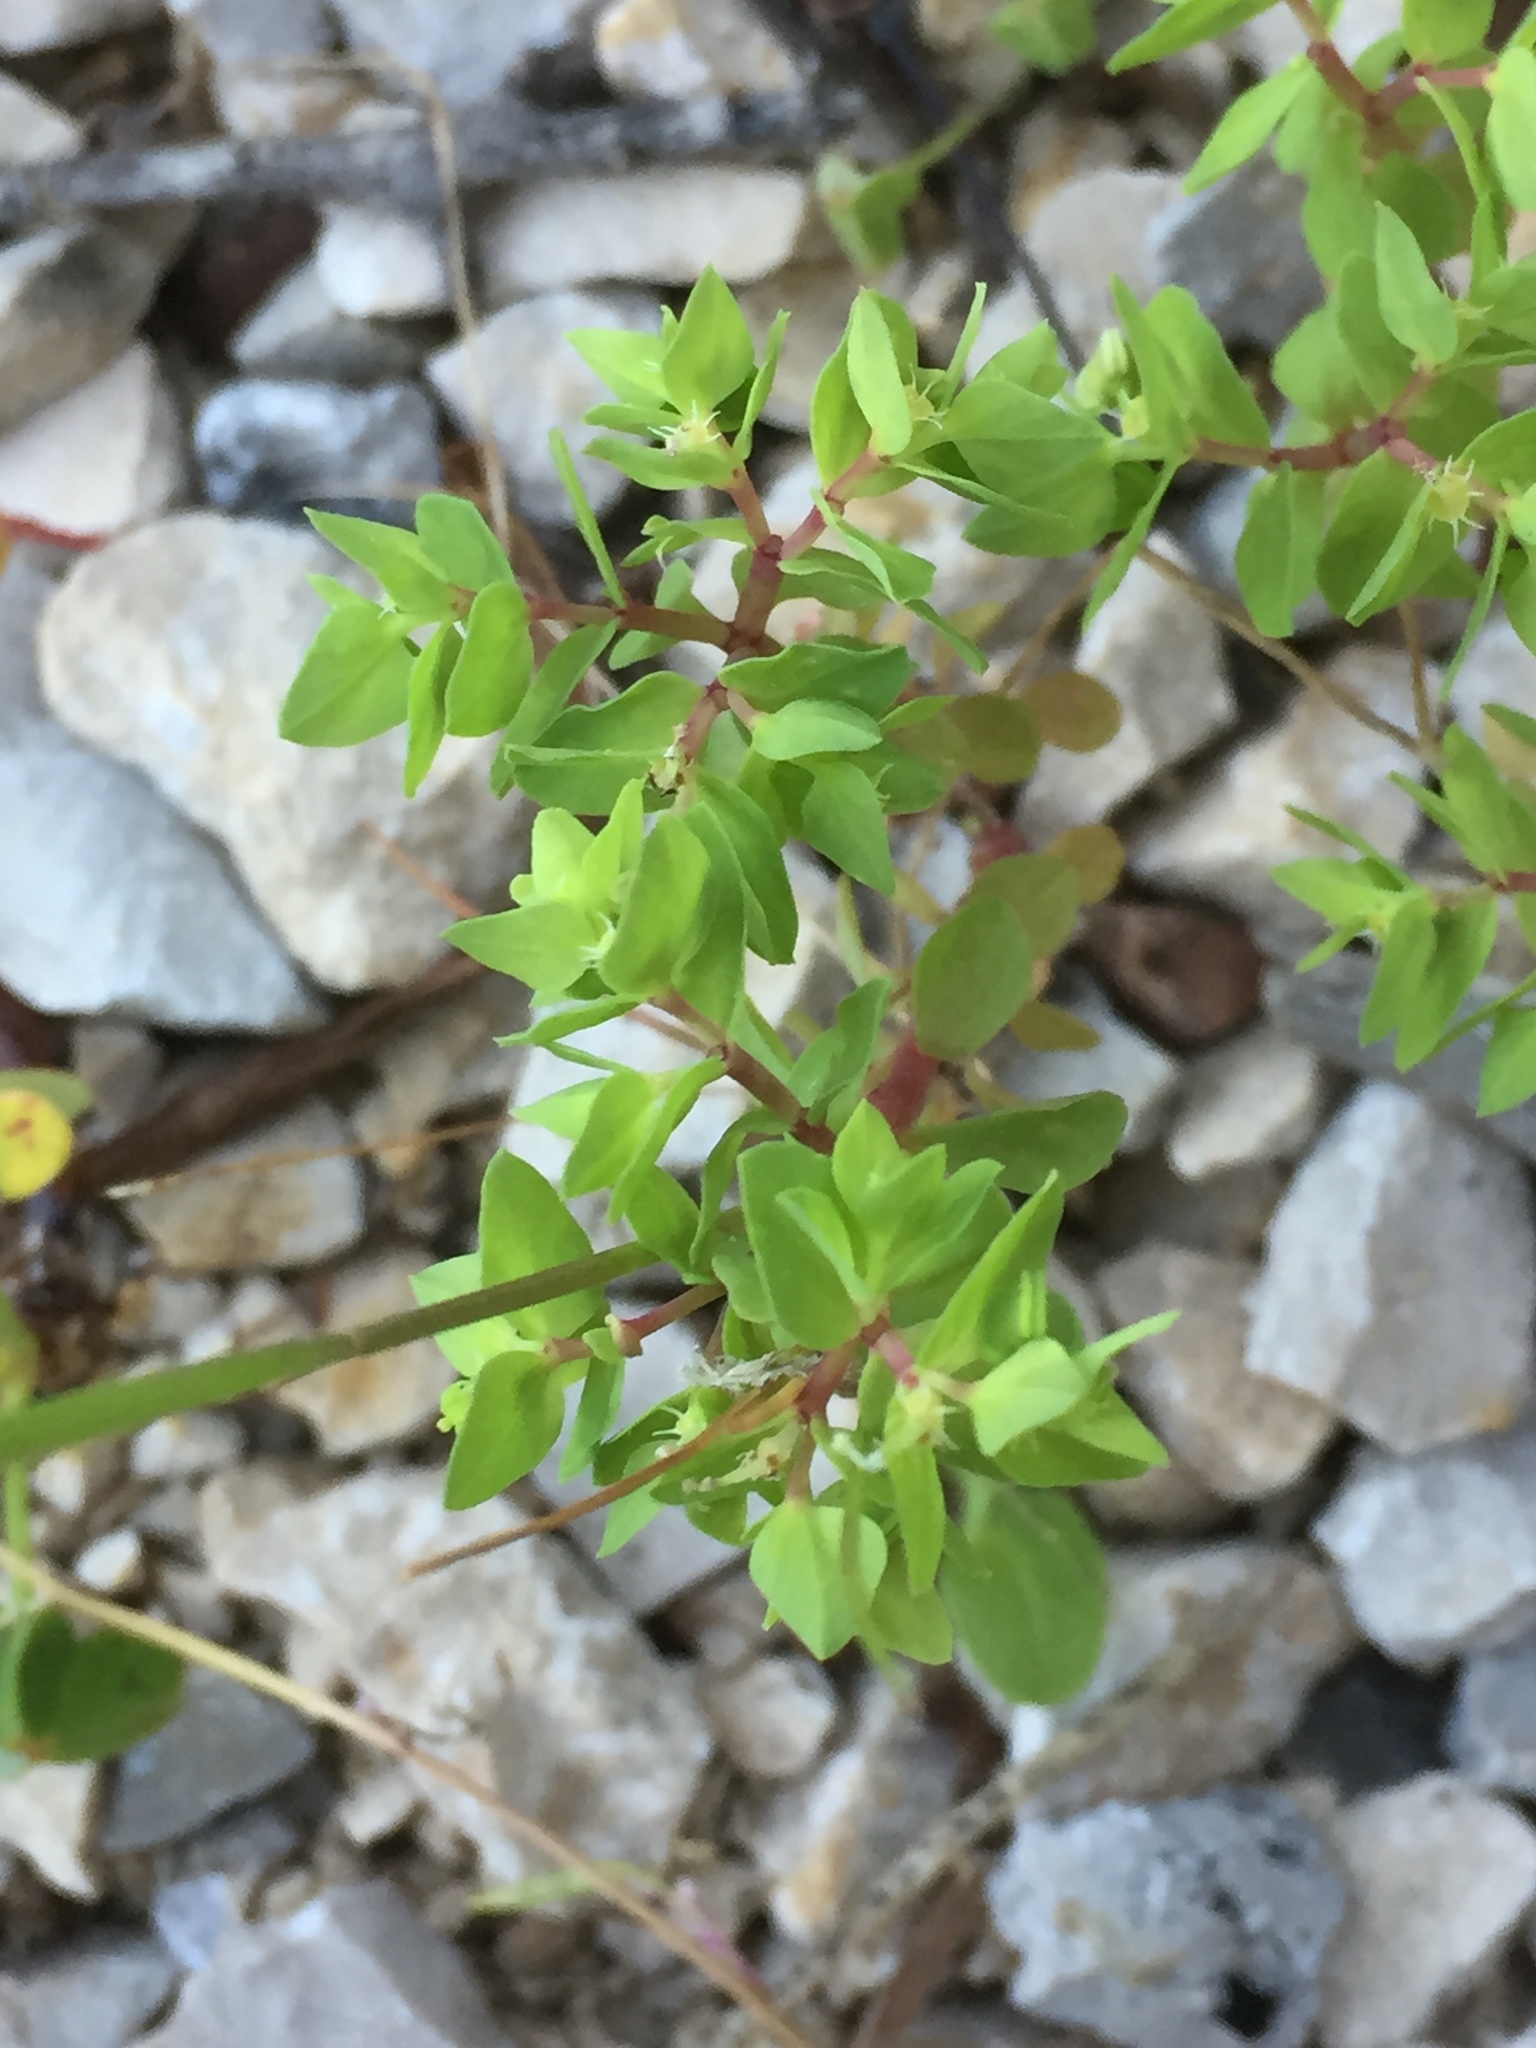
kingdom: Plantae
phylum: Tracheophyta
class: Magnoliopsida
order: Malpighiales
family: Euphorbiaceae
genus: Euphorbia
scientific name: Euphorbia peplus
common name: Petty spurge
